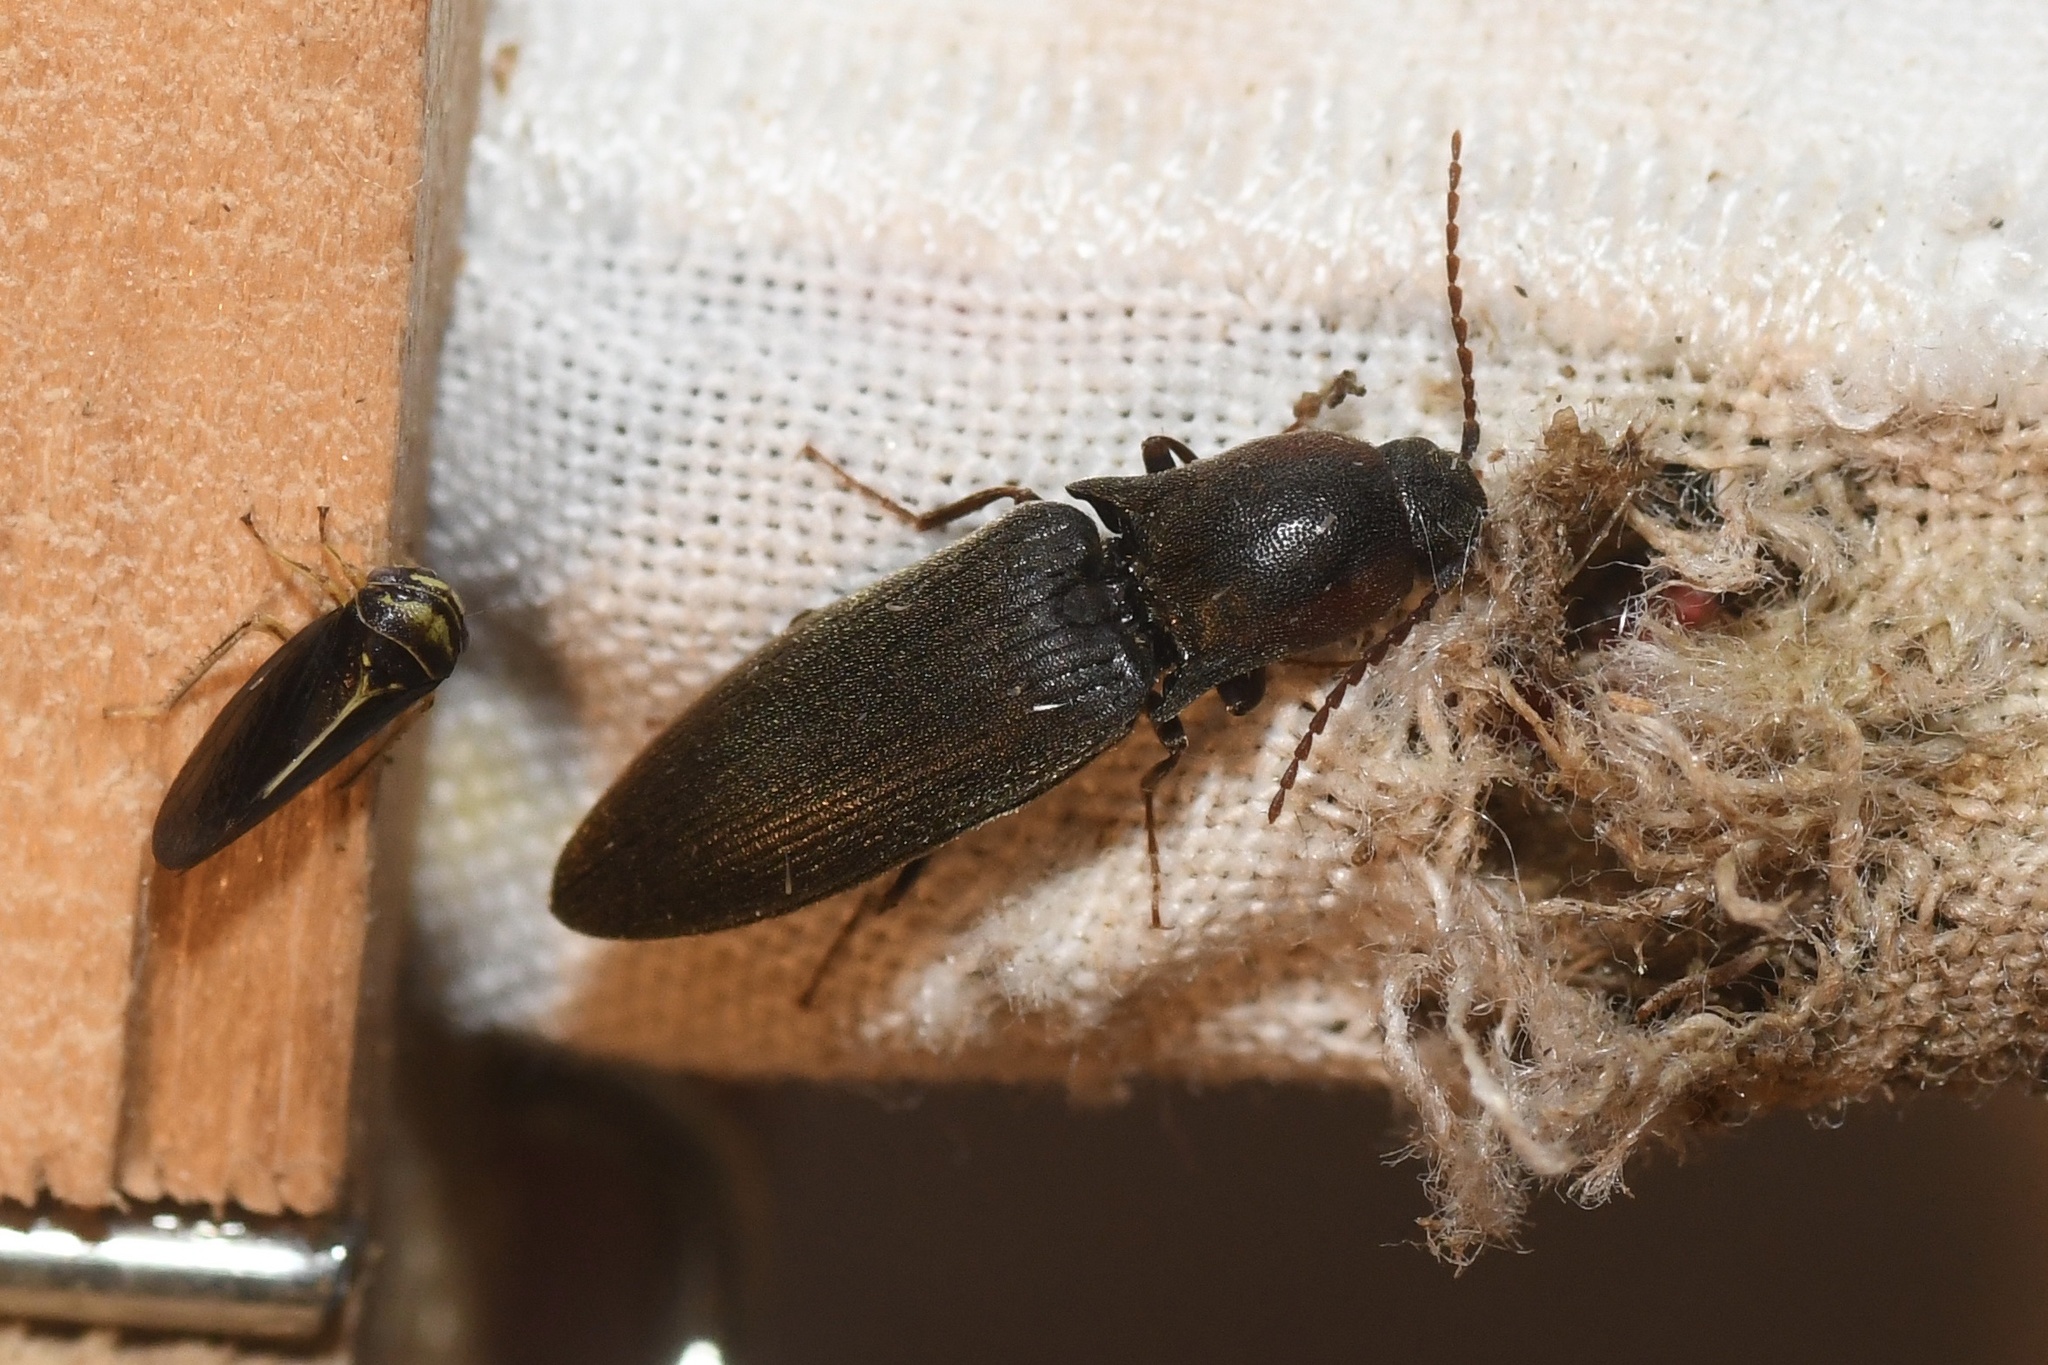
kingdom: Animalia
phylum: Arthropoda
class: Insecta
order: Coleoptera
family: Elateridae
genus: Agriotes
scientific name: Agriotes fucosus
